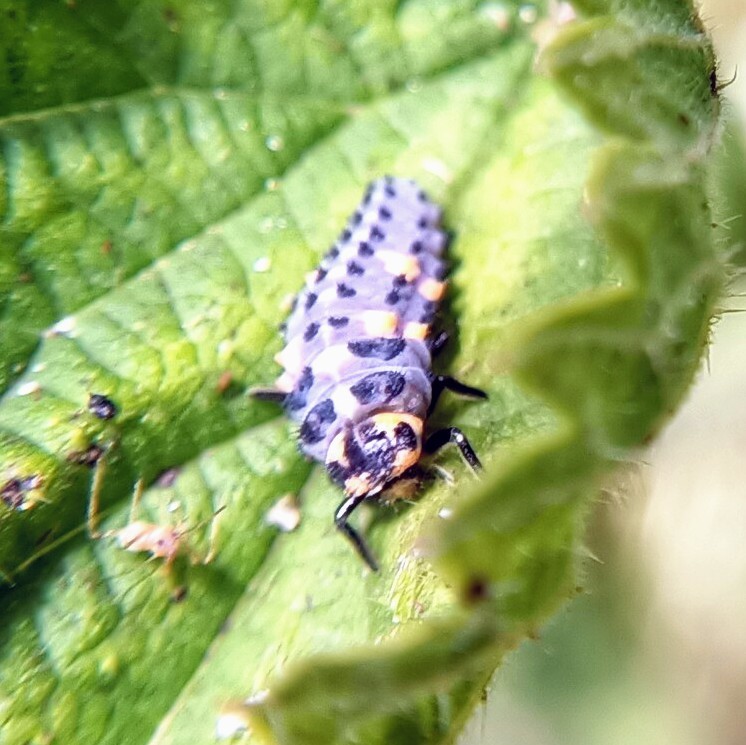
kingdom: Animalia
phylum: Arthropoda
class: Insecta
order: Coleoptera
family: Coccinellidae
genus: Coccinella
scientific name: Coccinella septempunctata
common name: Sevenspotted lady beetle
